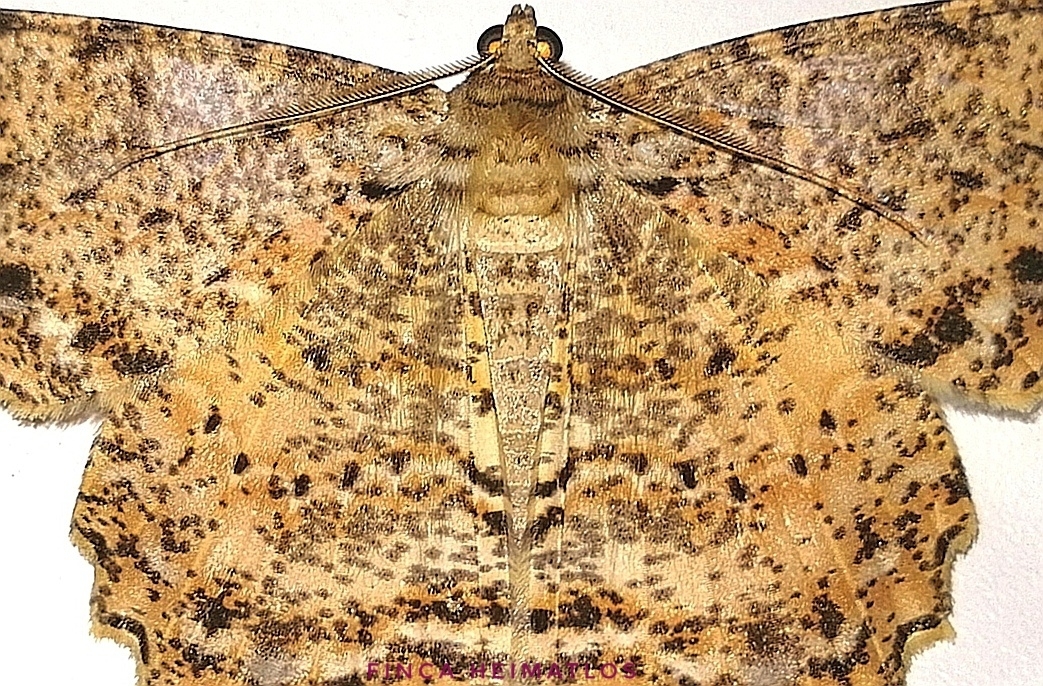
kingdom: Animalia
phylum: Arthropoda
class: Insecta
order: Lepidoptera
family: Geometridae
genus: Epimecis
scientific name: Epimecis subroraria
